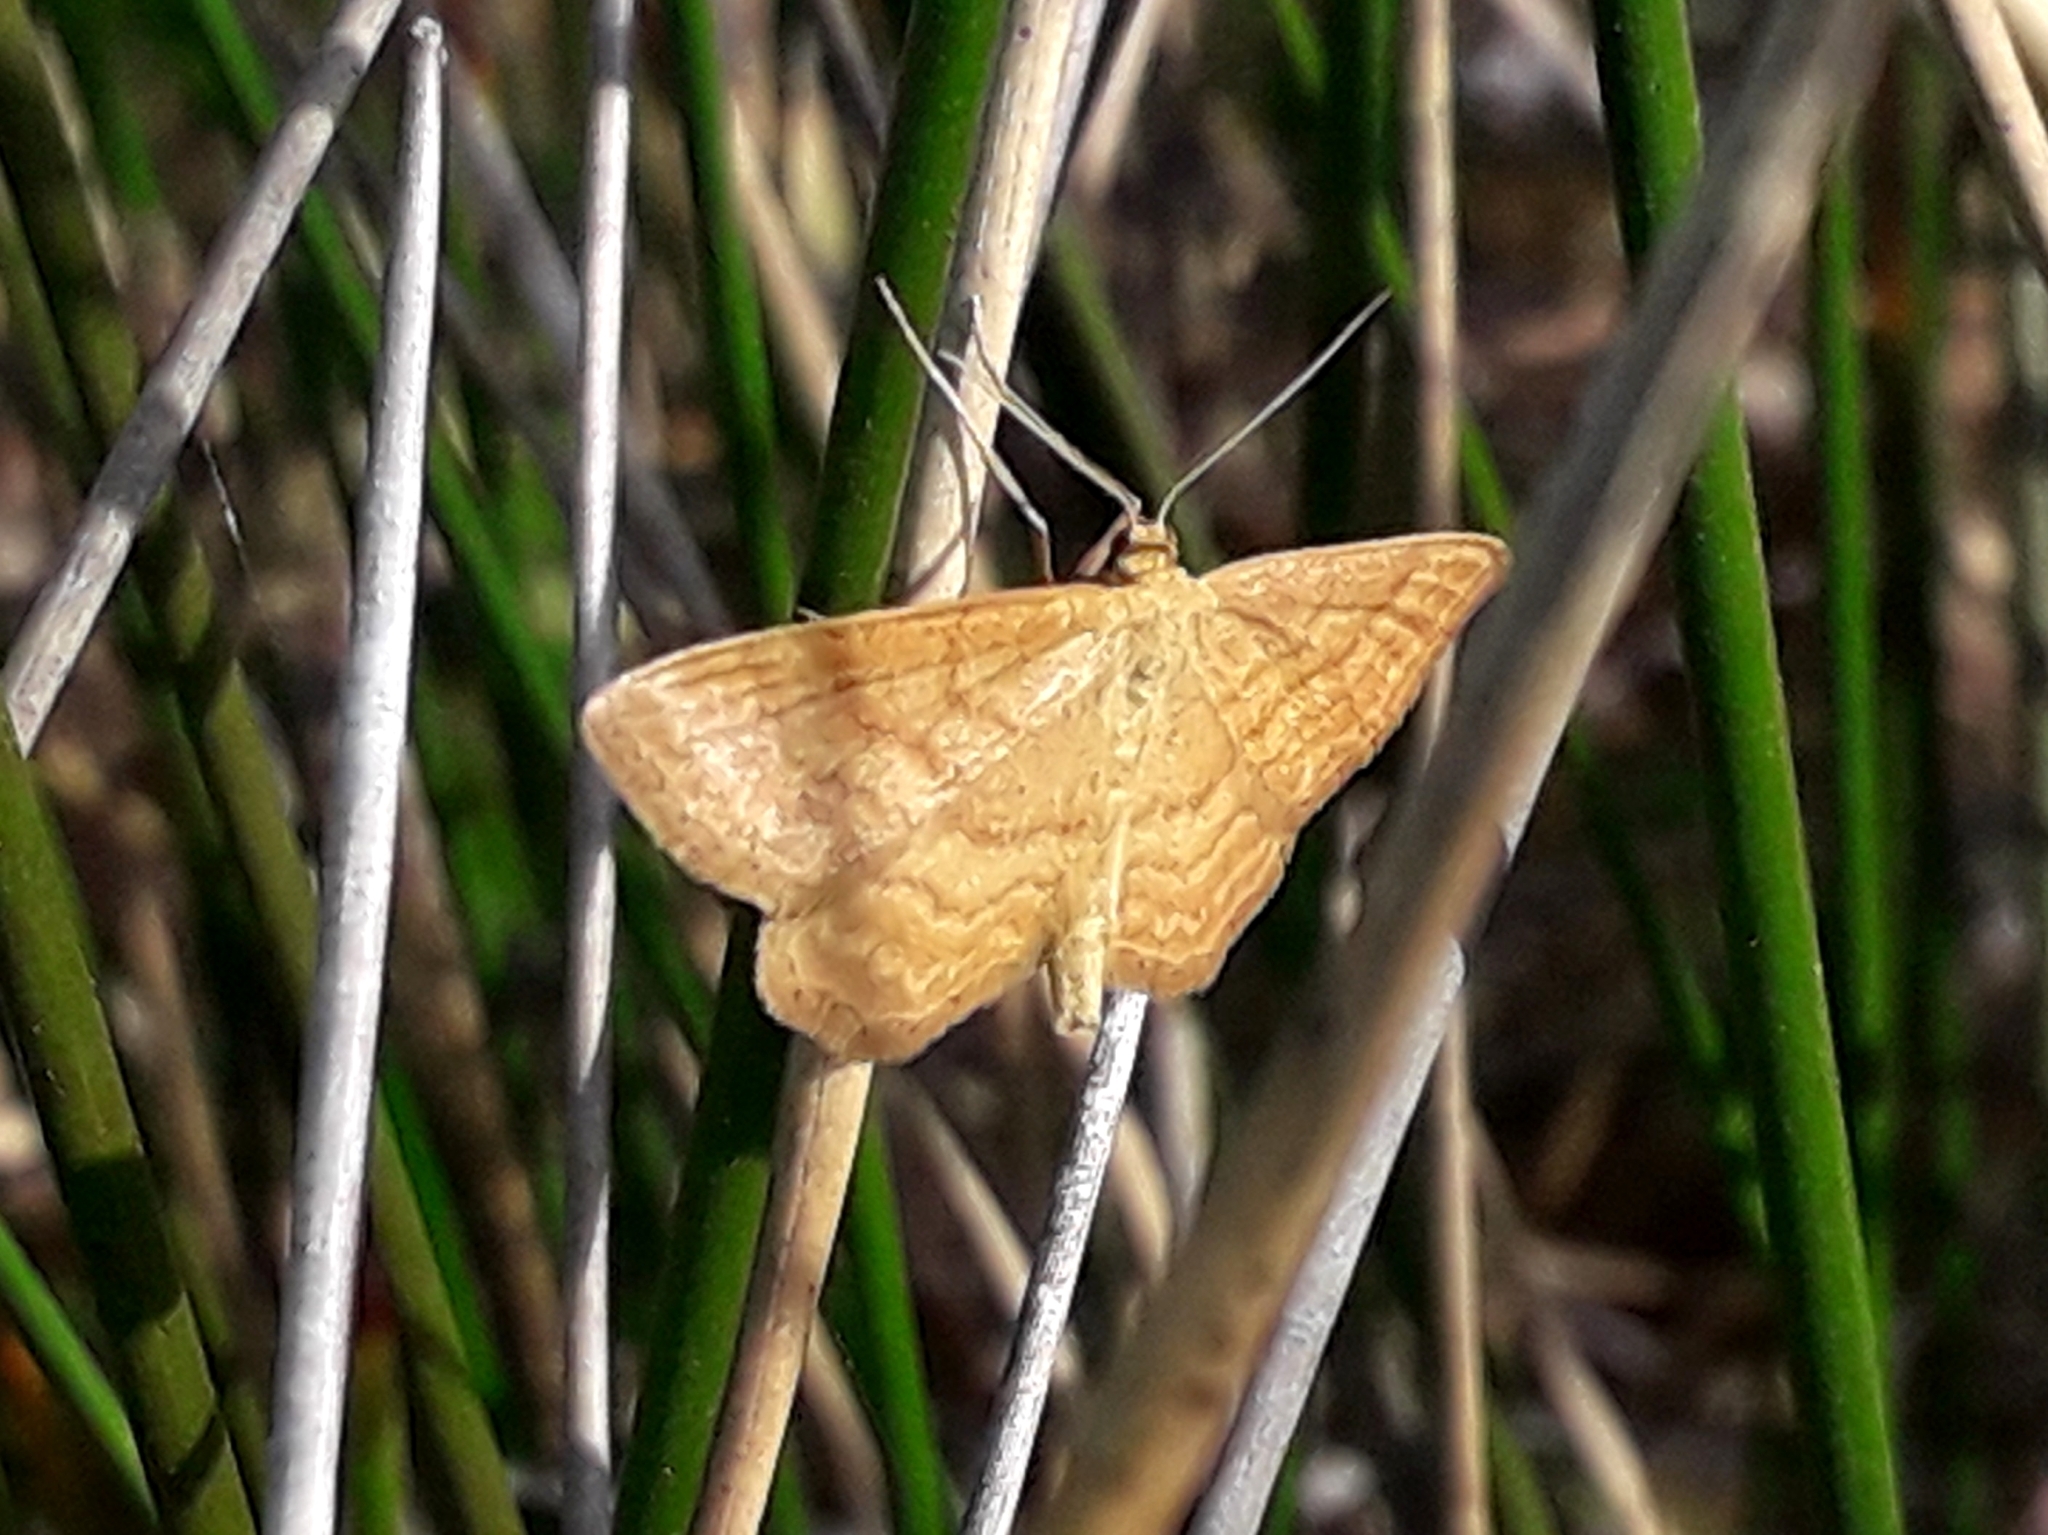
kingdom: Animalia
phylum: Arthropoda
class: Insecta
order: Lepidoptera
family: Geometridae
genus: Idaea
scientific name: Idaea ochrata
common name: Bright wave
